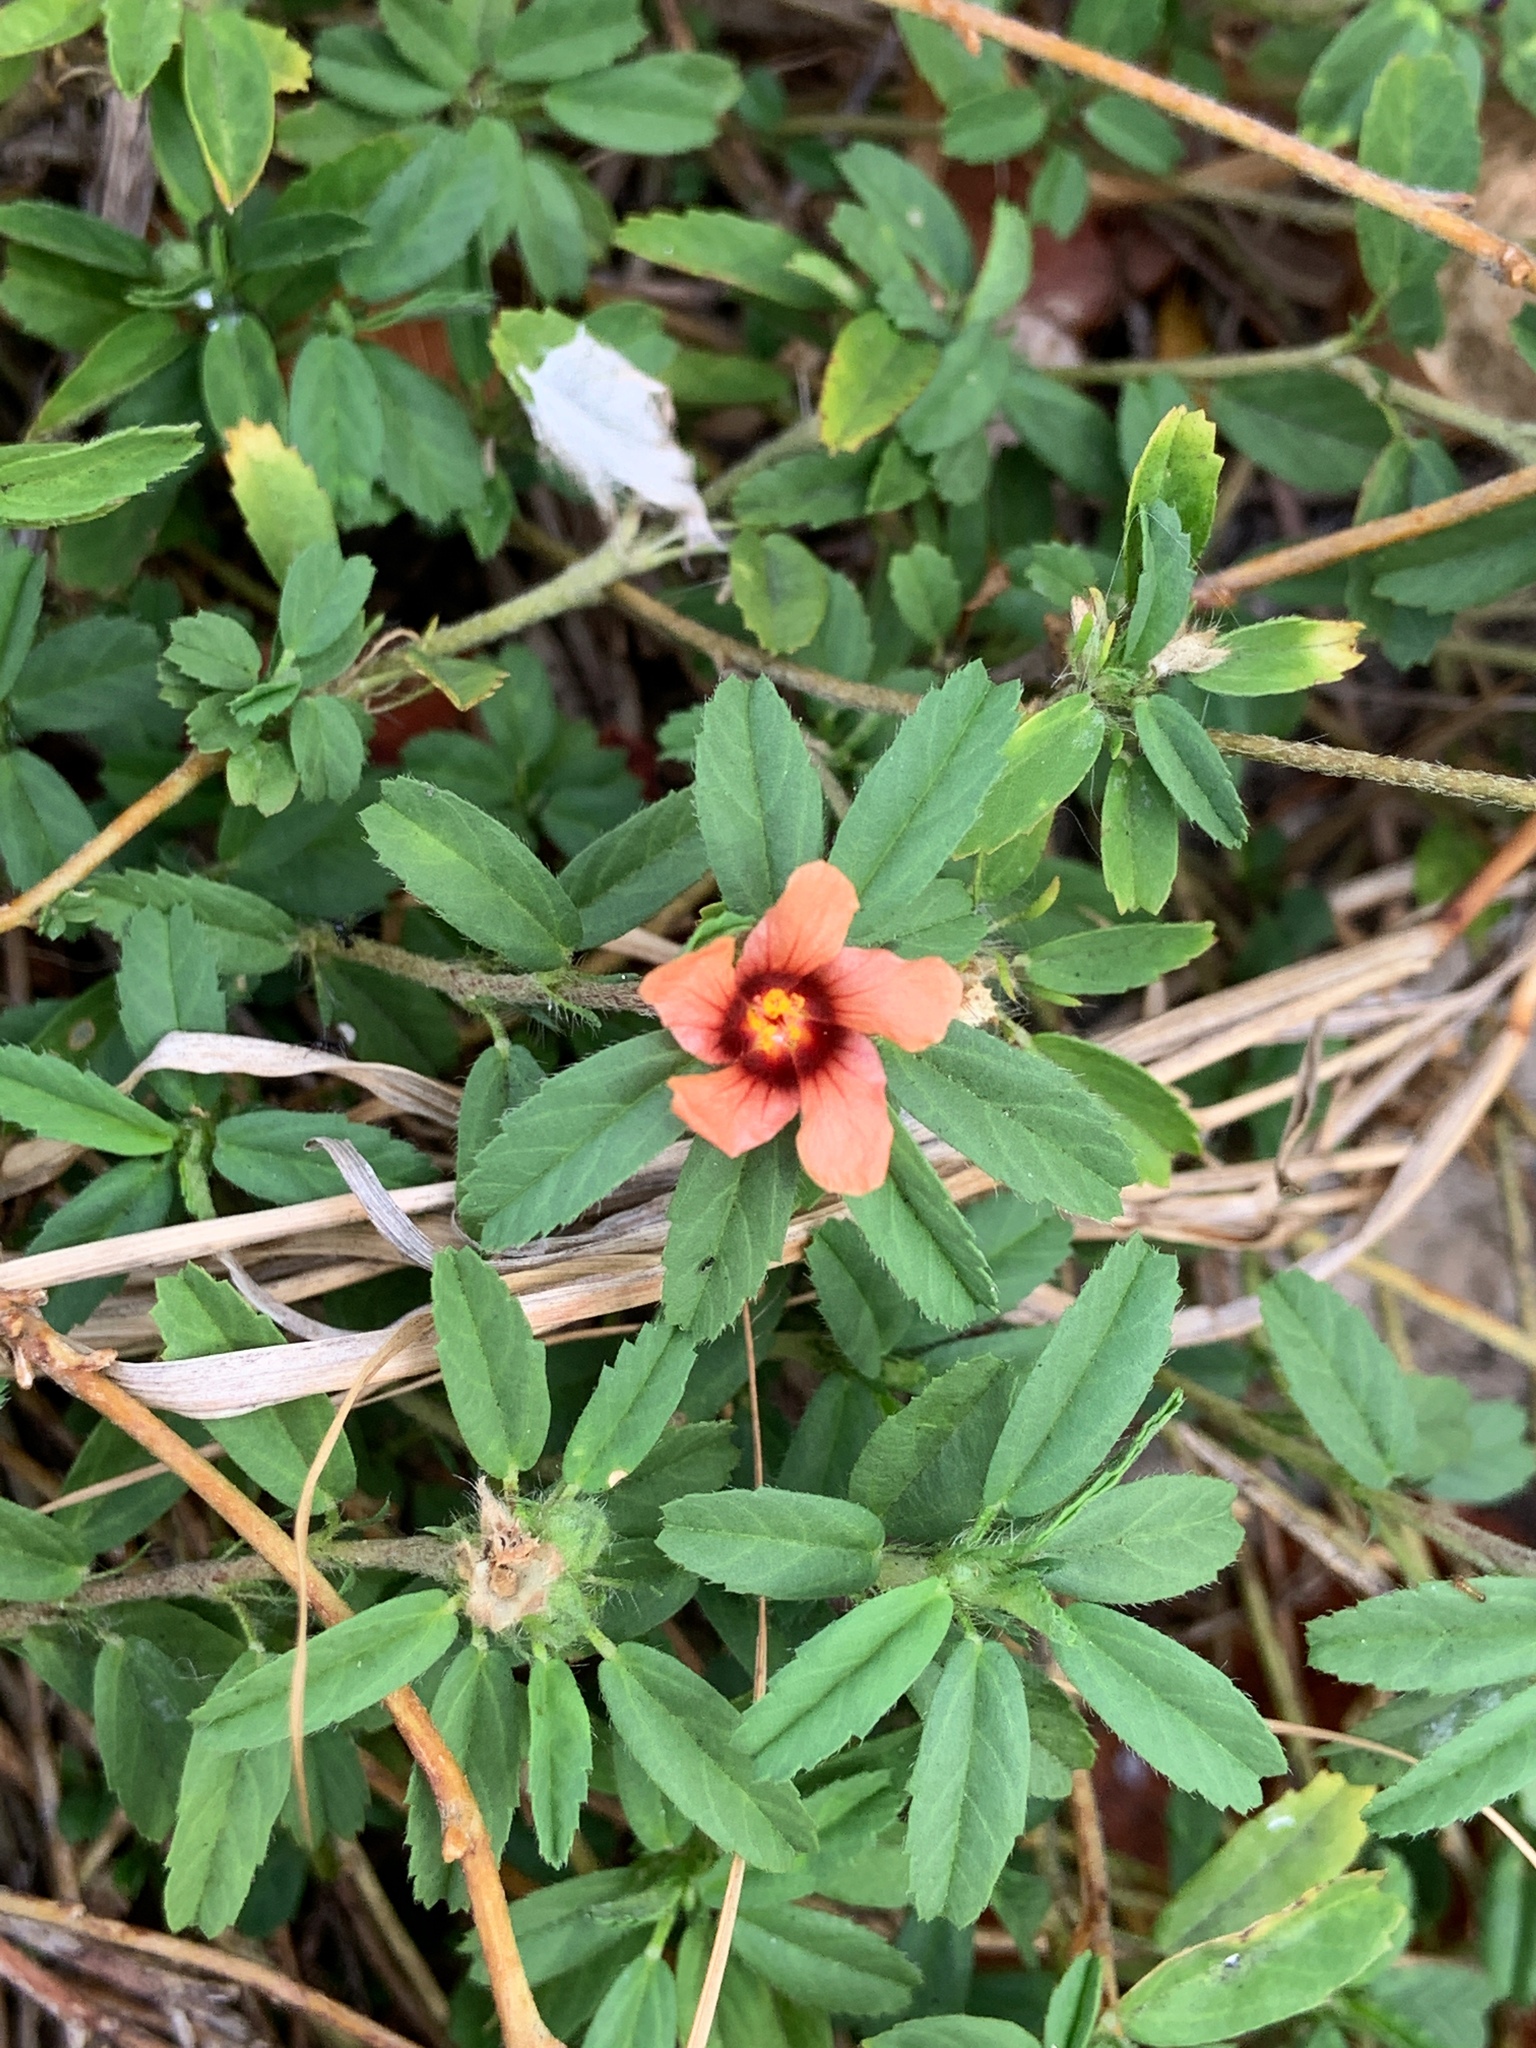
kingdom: Plantae
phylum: Tracheophyta
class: Magnoliopsida
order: Malvales
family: Malvaceae
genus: Sida
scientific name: Sida ciliaris
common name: Bracted fanpetals
